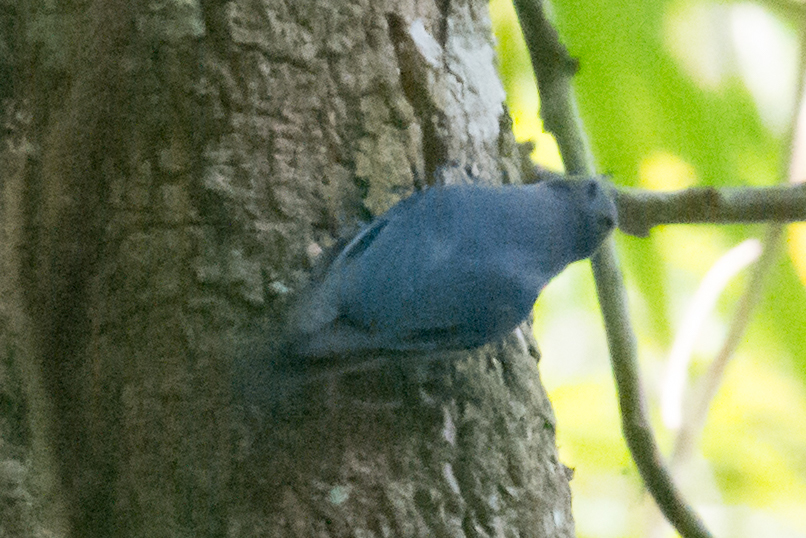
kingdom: Animalia
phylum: Chordata
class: Aves
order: Passeriformes
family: Sittidae
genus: Sitta
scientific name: Sitta frontalis
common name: Velvet-fronted nuthatch
